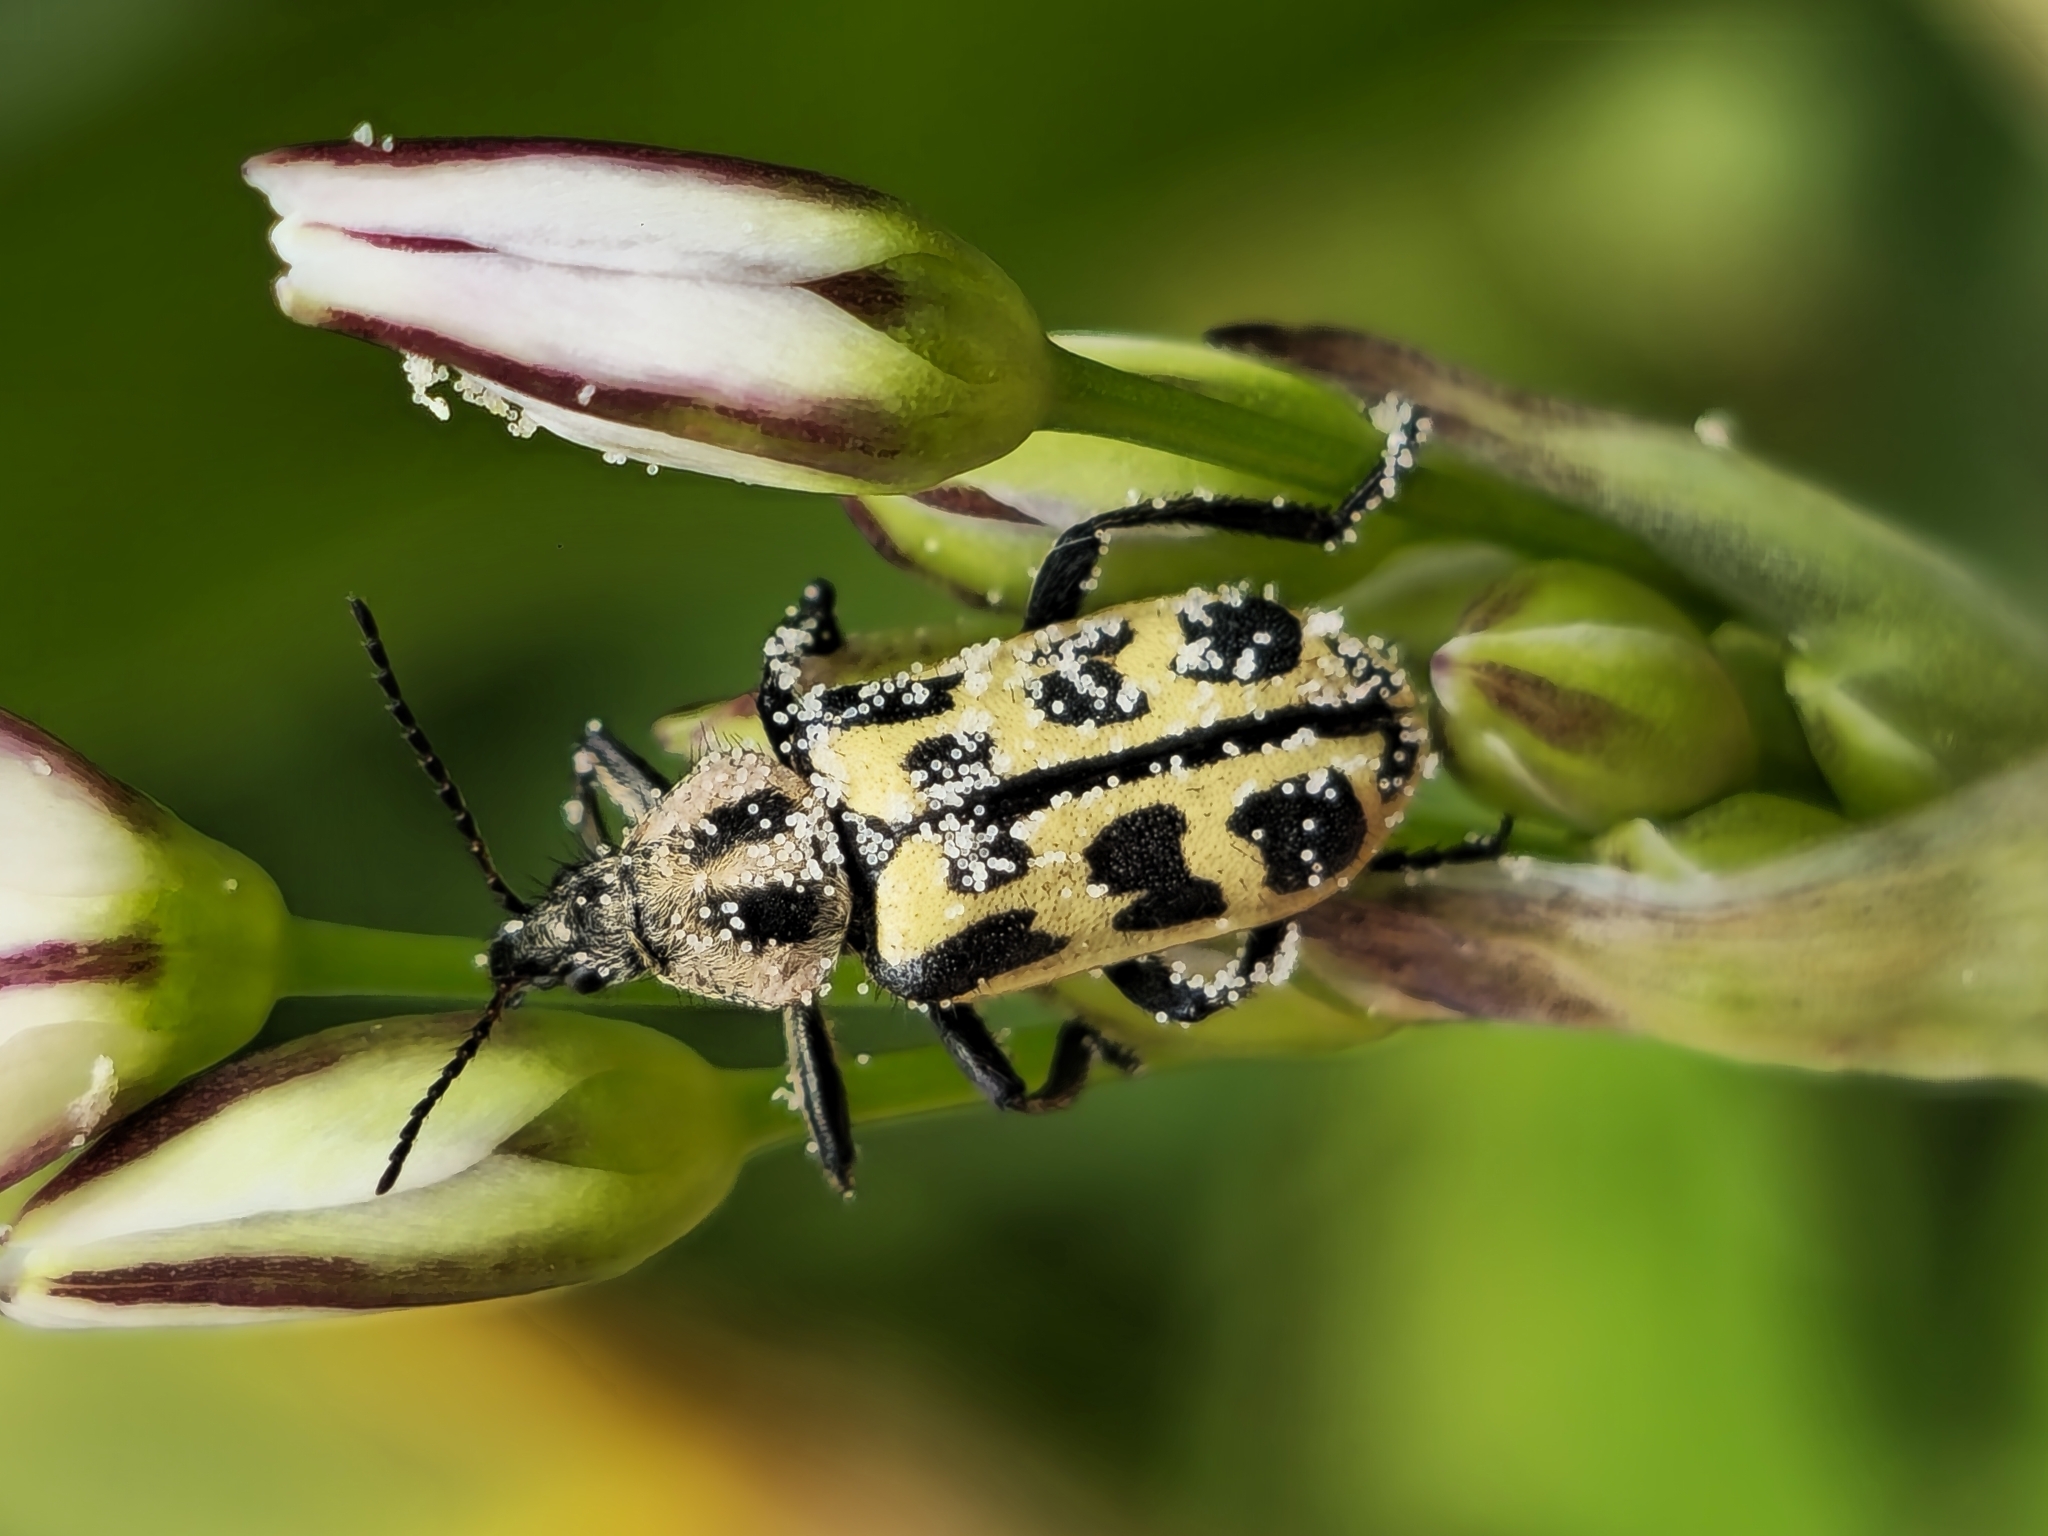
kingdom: Animalia
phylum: Arthropoda
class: Insecta
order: Coleoptera
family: Melyridae
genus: Astylus
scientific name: Astylus atromaculatus
